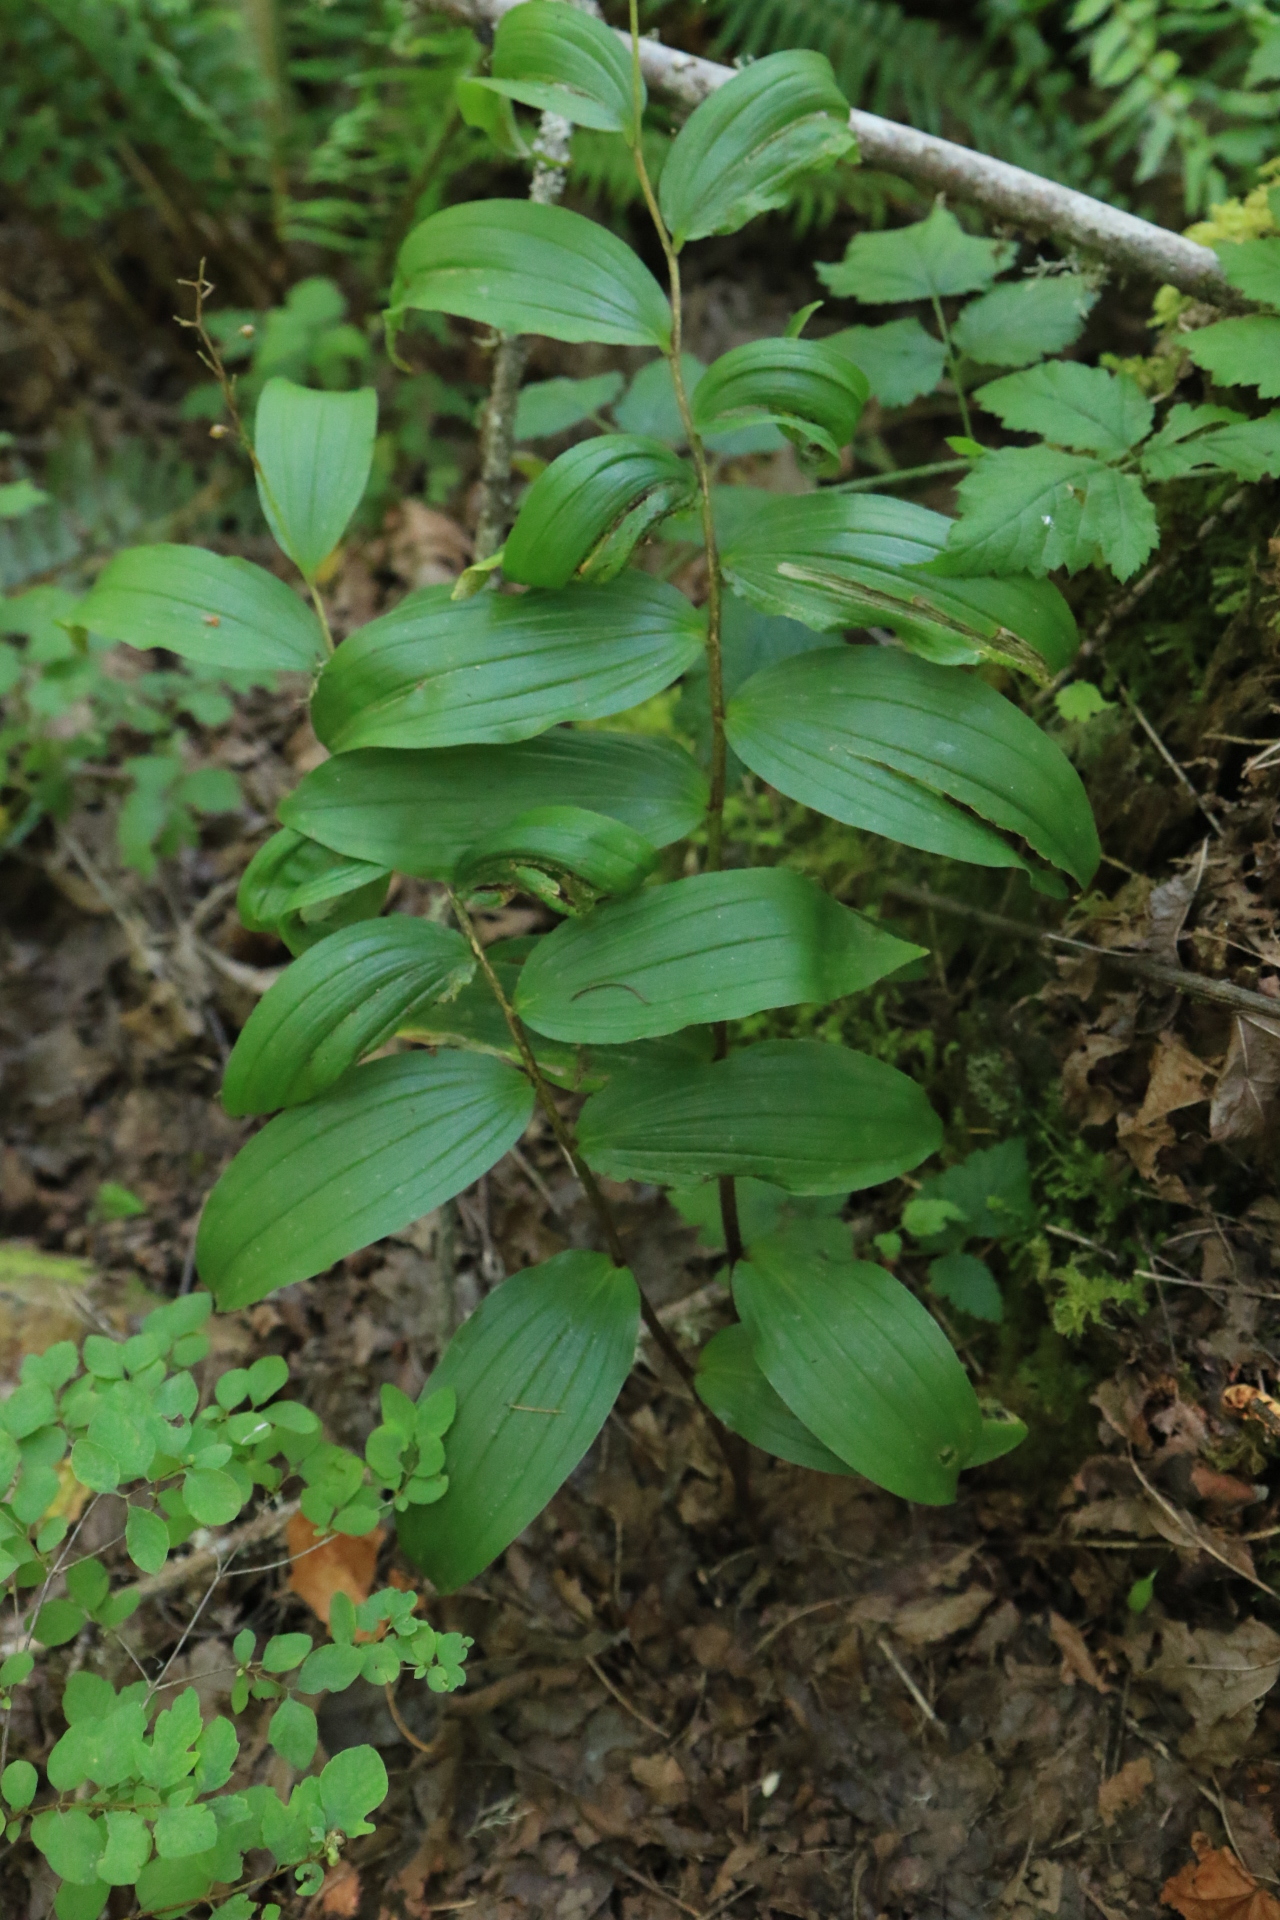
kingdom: Plantae
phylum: Tracheophyta
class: Liliopsida
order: Asparagales
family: Asparagaceae
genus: Maianthemum
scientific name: Maianthemum racemosum
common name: False spikenard
